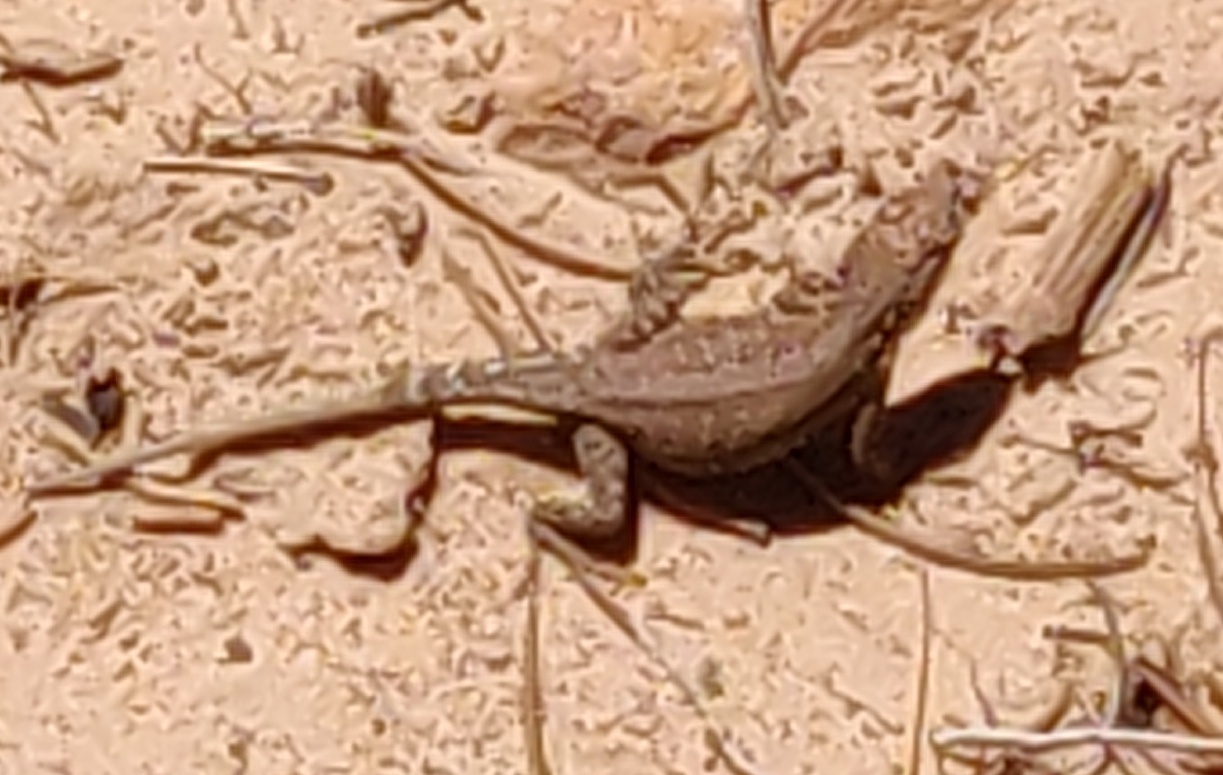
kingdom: Animalia
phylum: Chordata
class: Squamata
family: Phrynosomatidae
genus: Uta
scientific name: Uta stansburiana
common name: Side-blotched lizard
